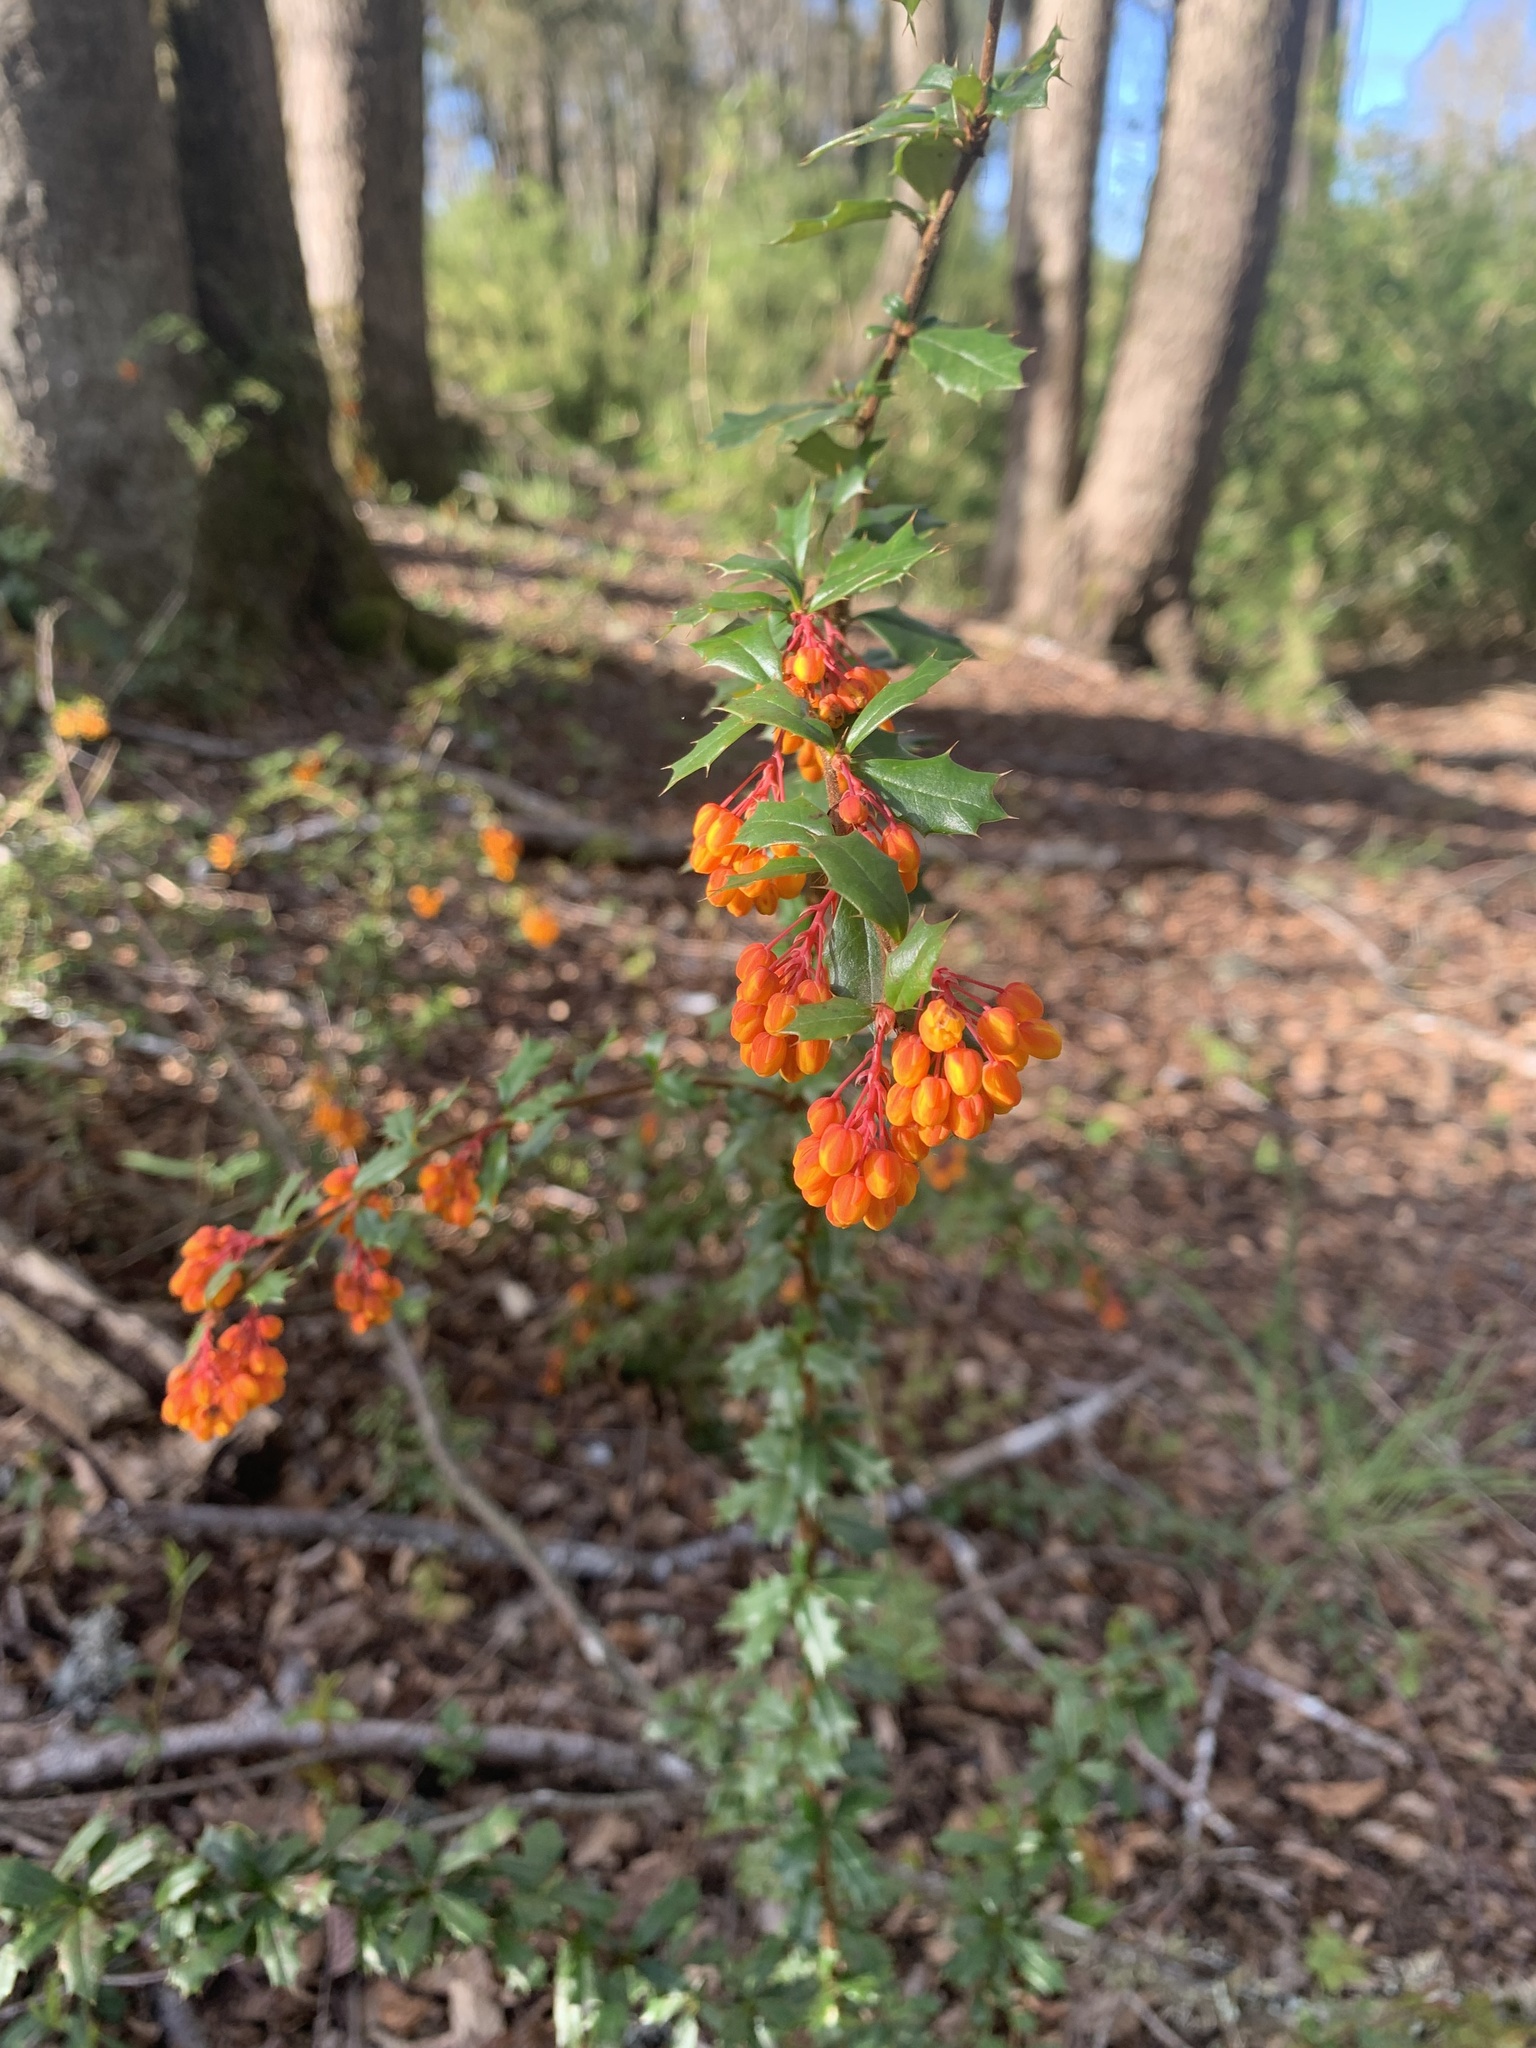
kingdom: Plantae
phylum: Tracheophyta
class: Magnoliopsida
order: Ranunculales
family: Berberidaceae
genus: Berberis
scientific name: Berberis darwinii
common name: Darwin's barberry
